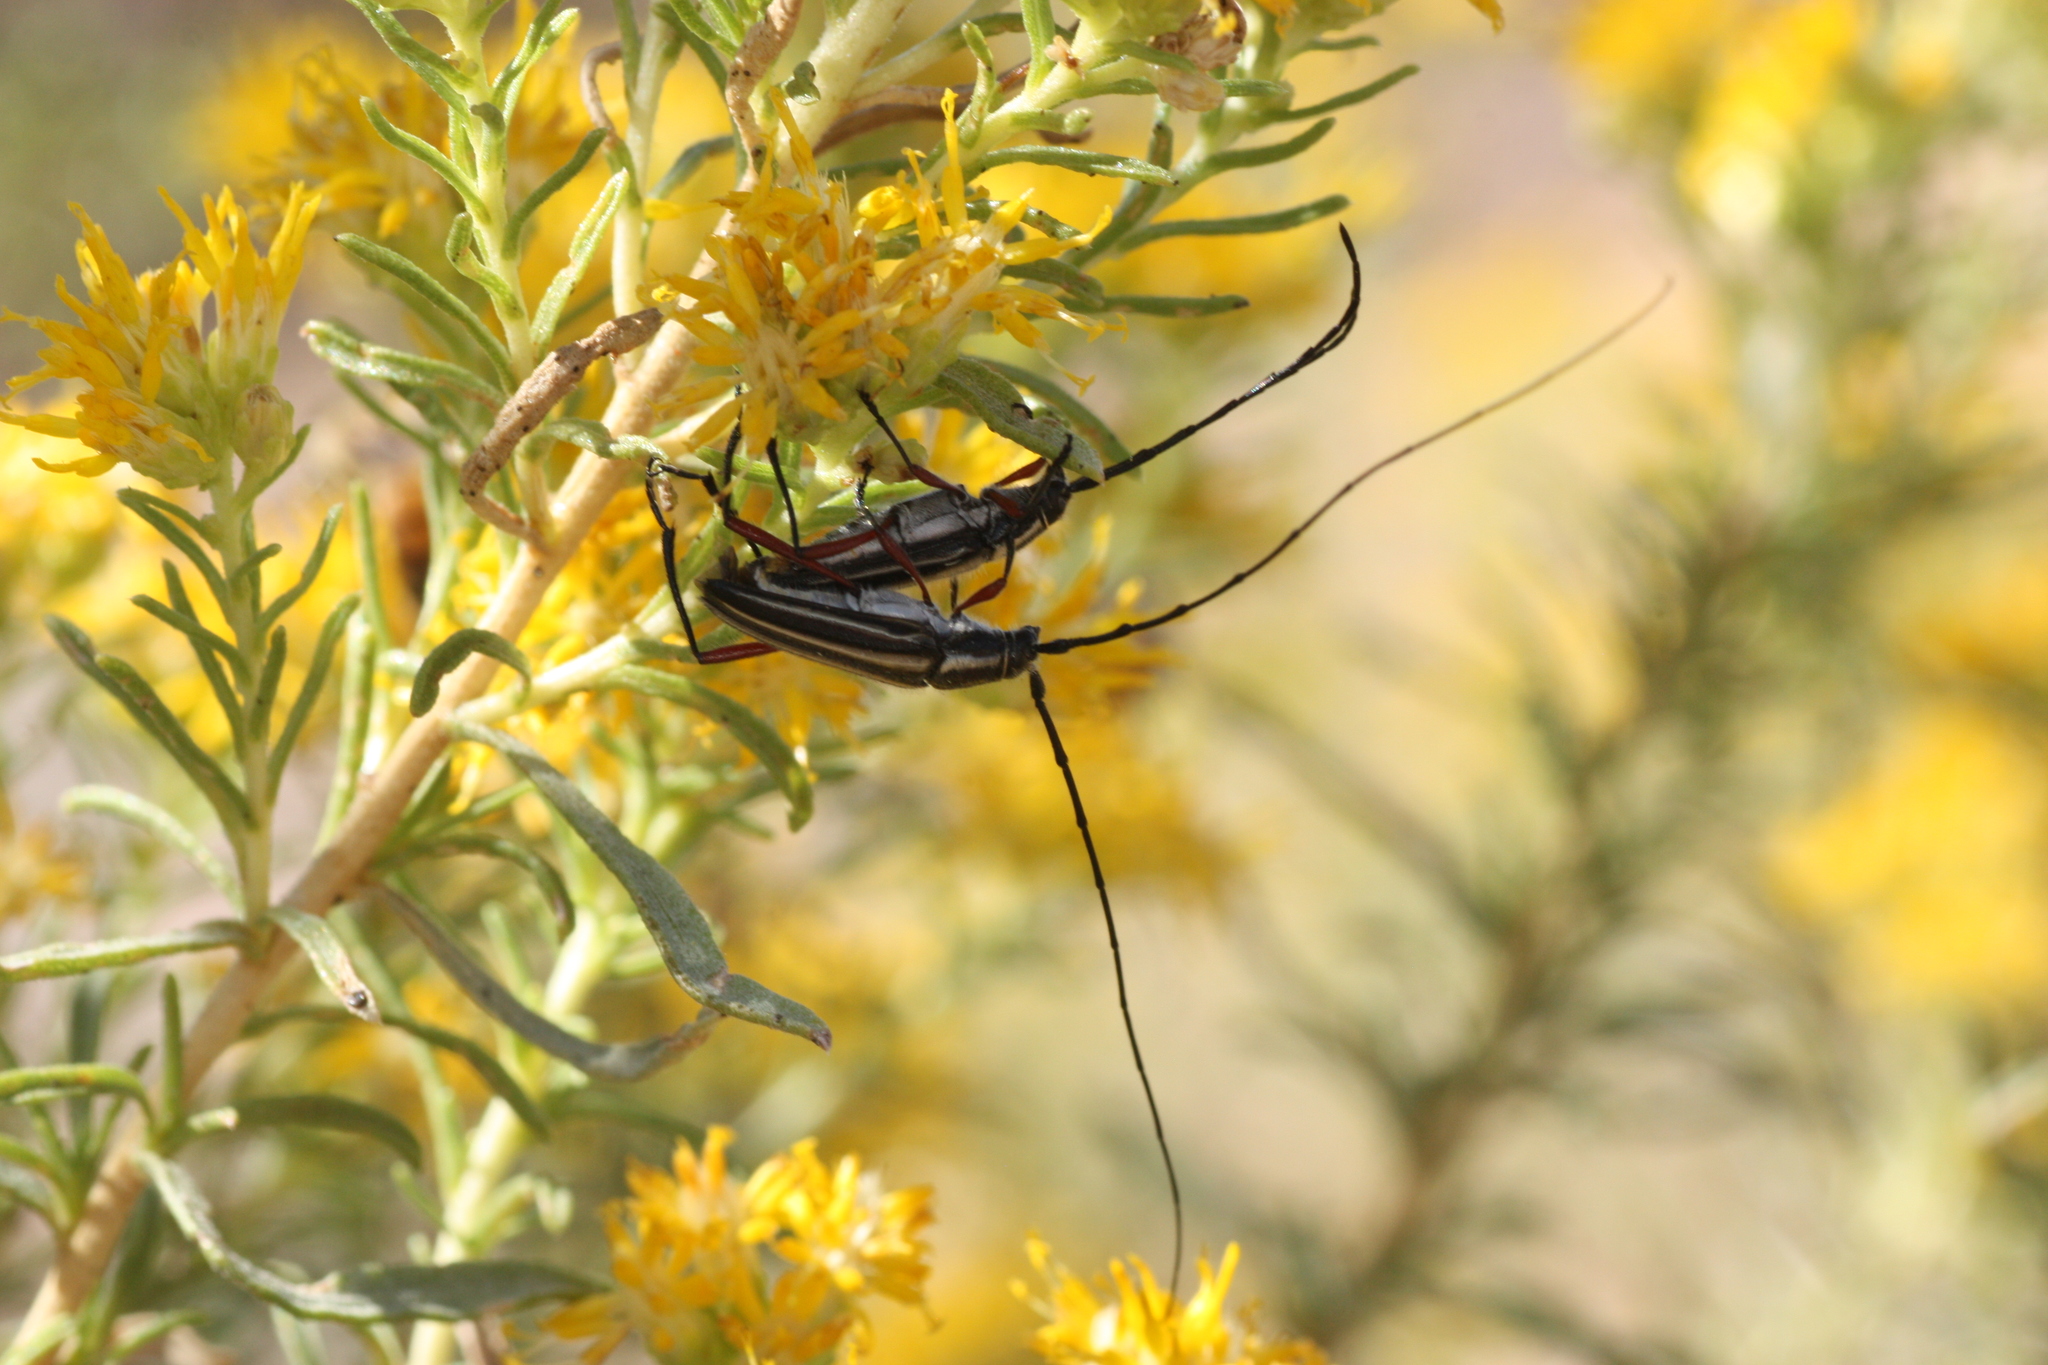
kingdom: Animalia
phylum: Arthropoda
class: Insecta
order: Coleoptera
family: Cerambycidae
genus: Sphaenothecus
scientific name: Sphaenothecus bilineatus
